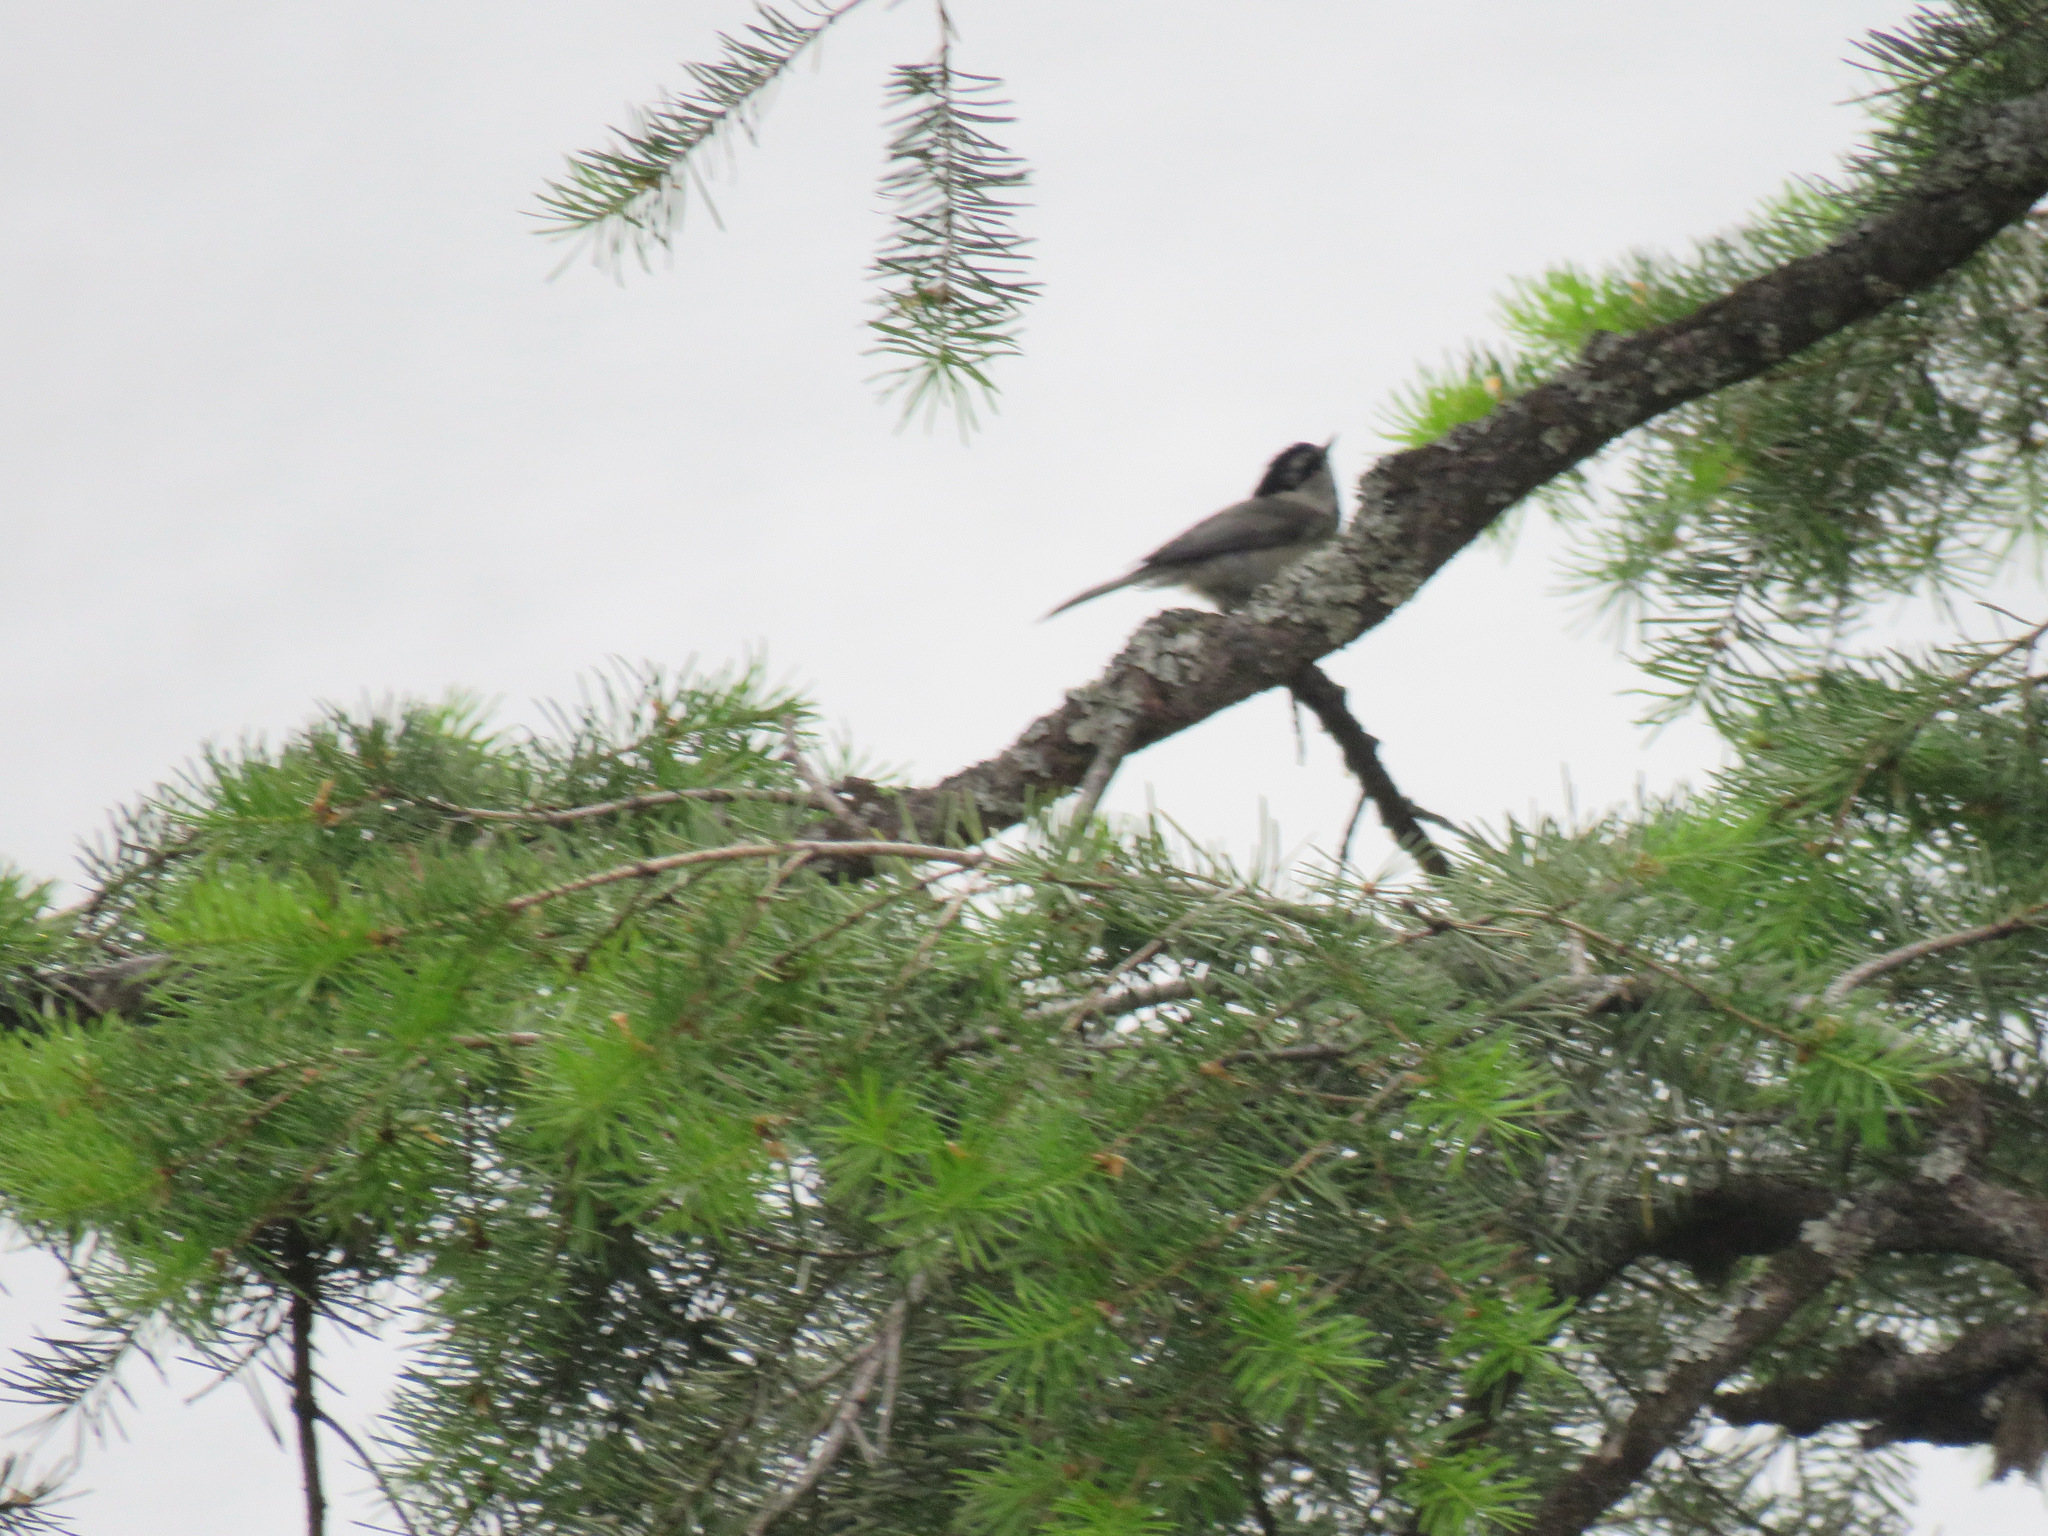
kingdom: Animalia
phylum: Chordata
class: Aves
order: Passeriformes
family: Paridae
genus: Poecile
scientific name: Poecile gambeli
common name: Mountain chickadee
